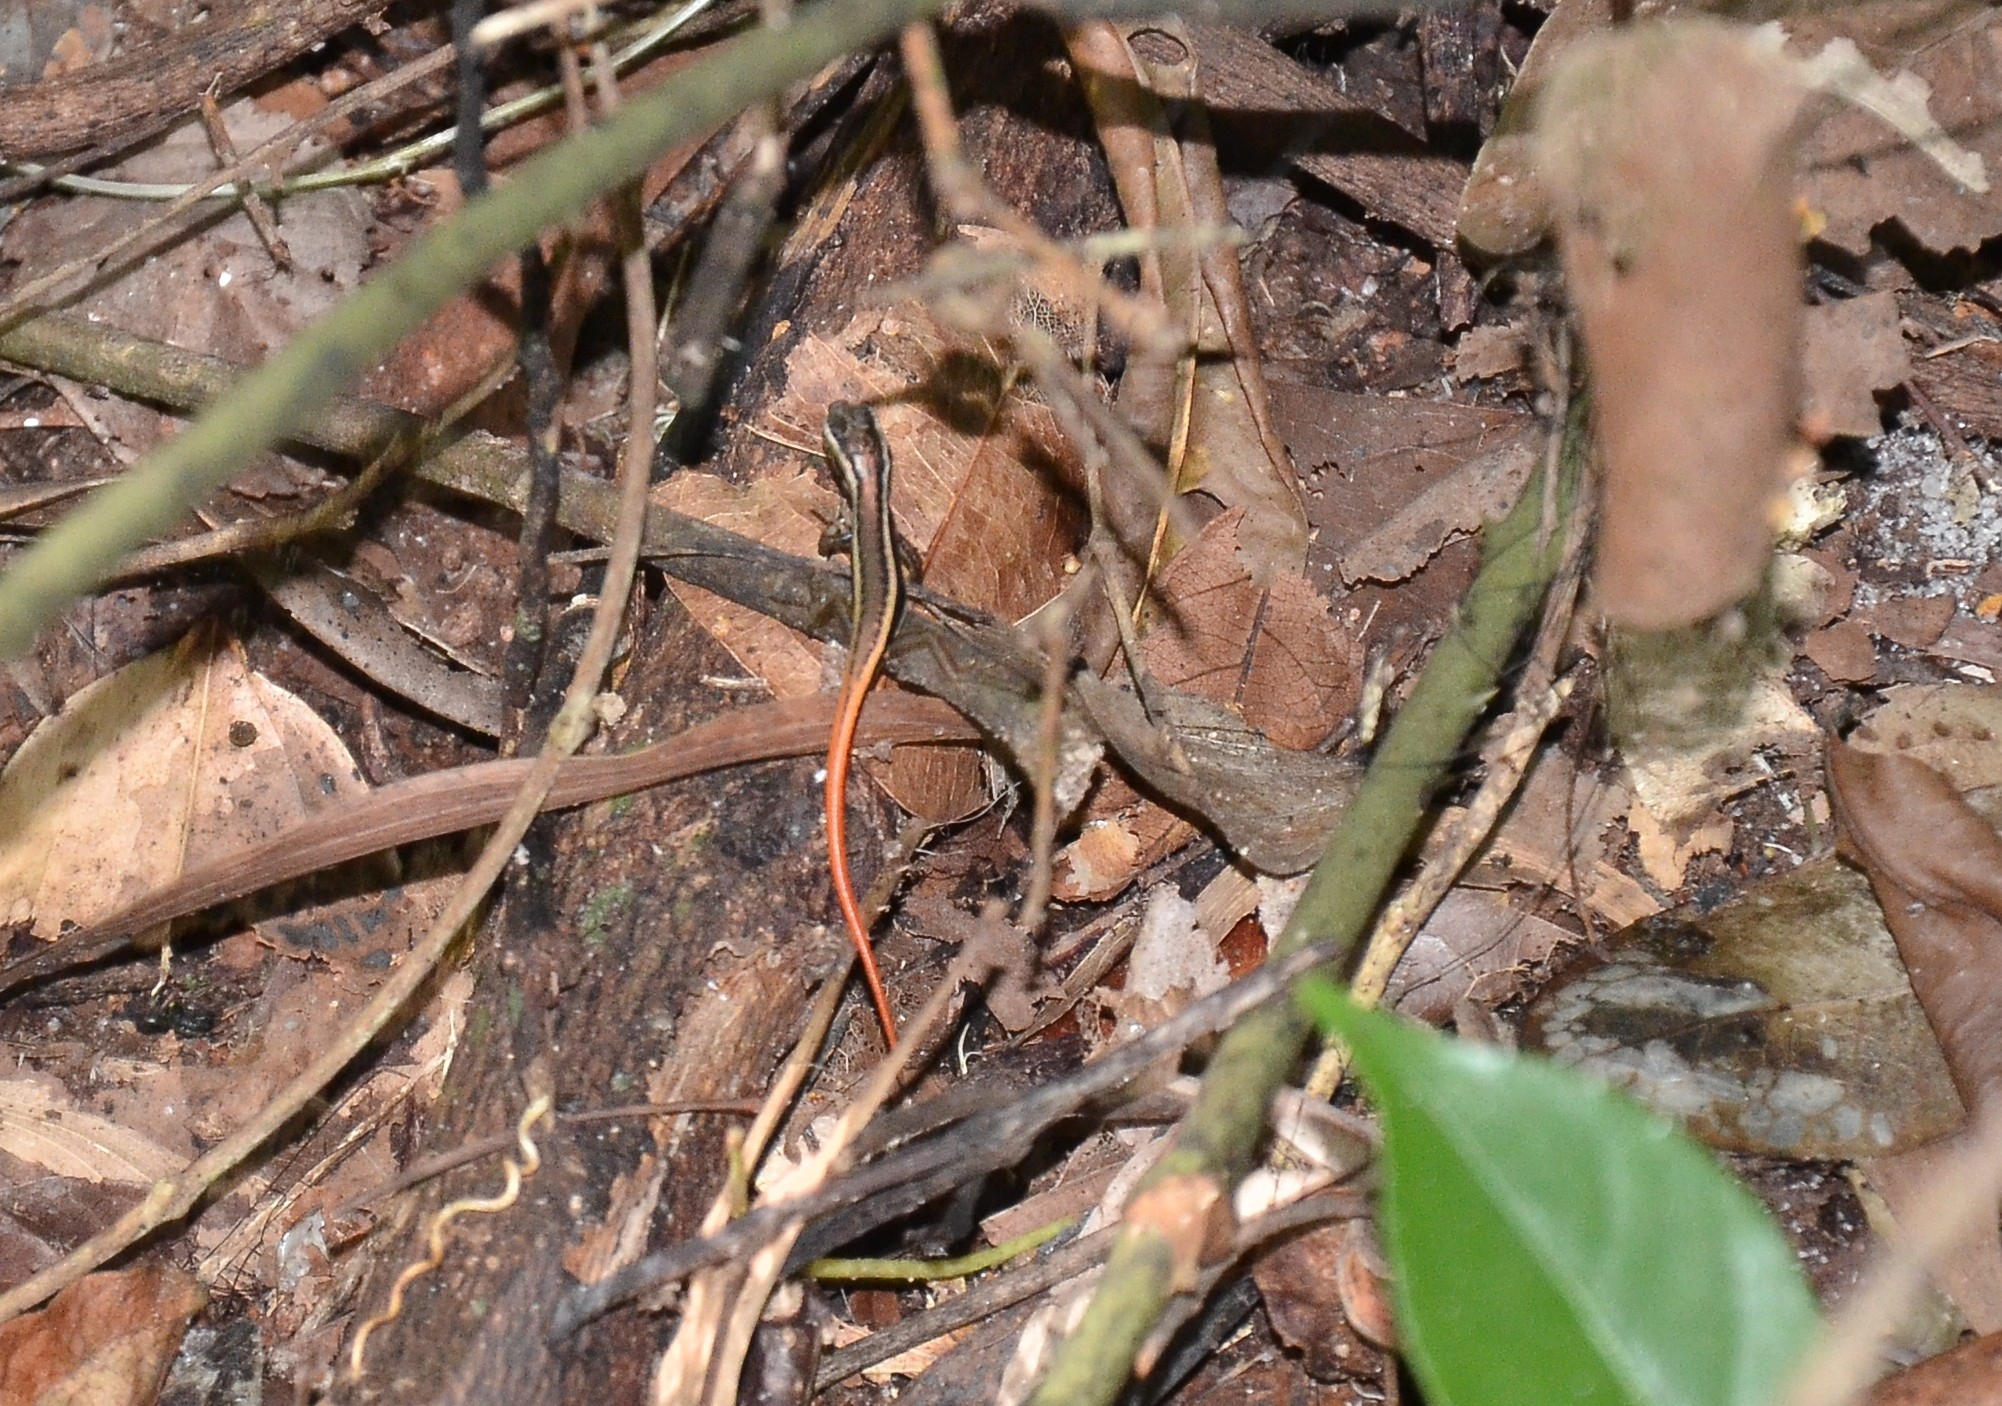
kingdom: Animalia
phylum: Chordata
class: Squamata
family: Scincidae
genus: Sphenomorphus
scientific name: Sphenomorphus dussumieri
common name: Dussumier's forest skink
